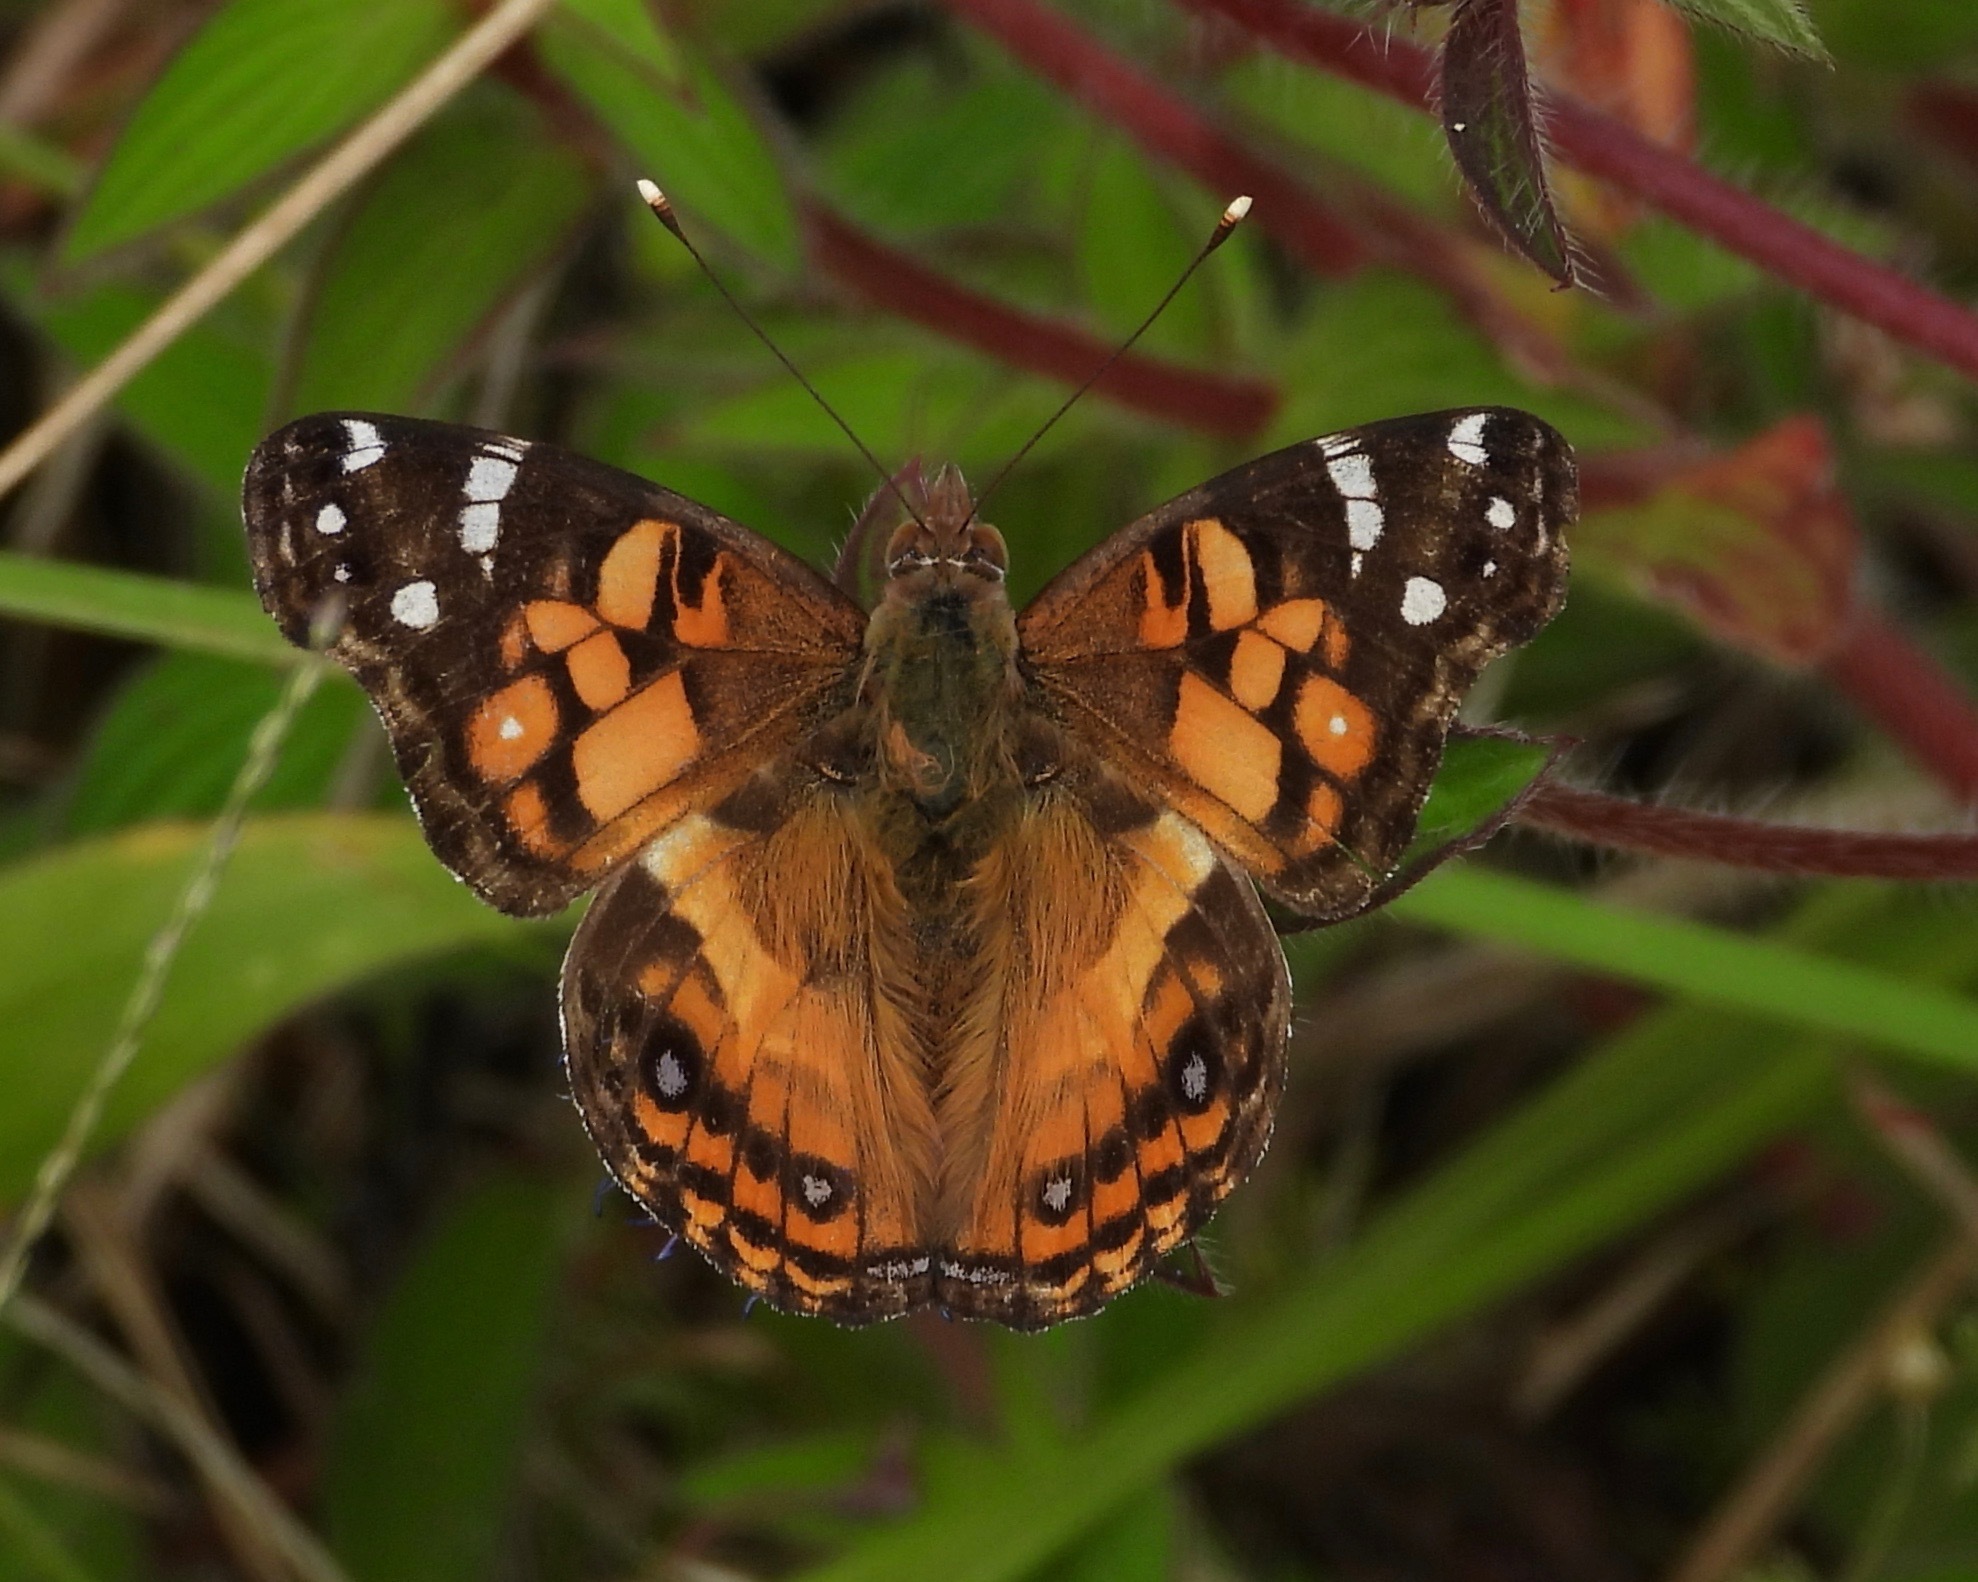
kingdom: Animalia
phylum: Arthropoda
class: Insecta
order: Lepidoptera
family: Nymphalidae
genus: Vanessa
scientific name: Vanessa virginiensis
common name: American lady
